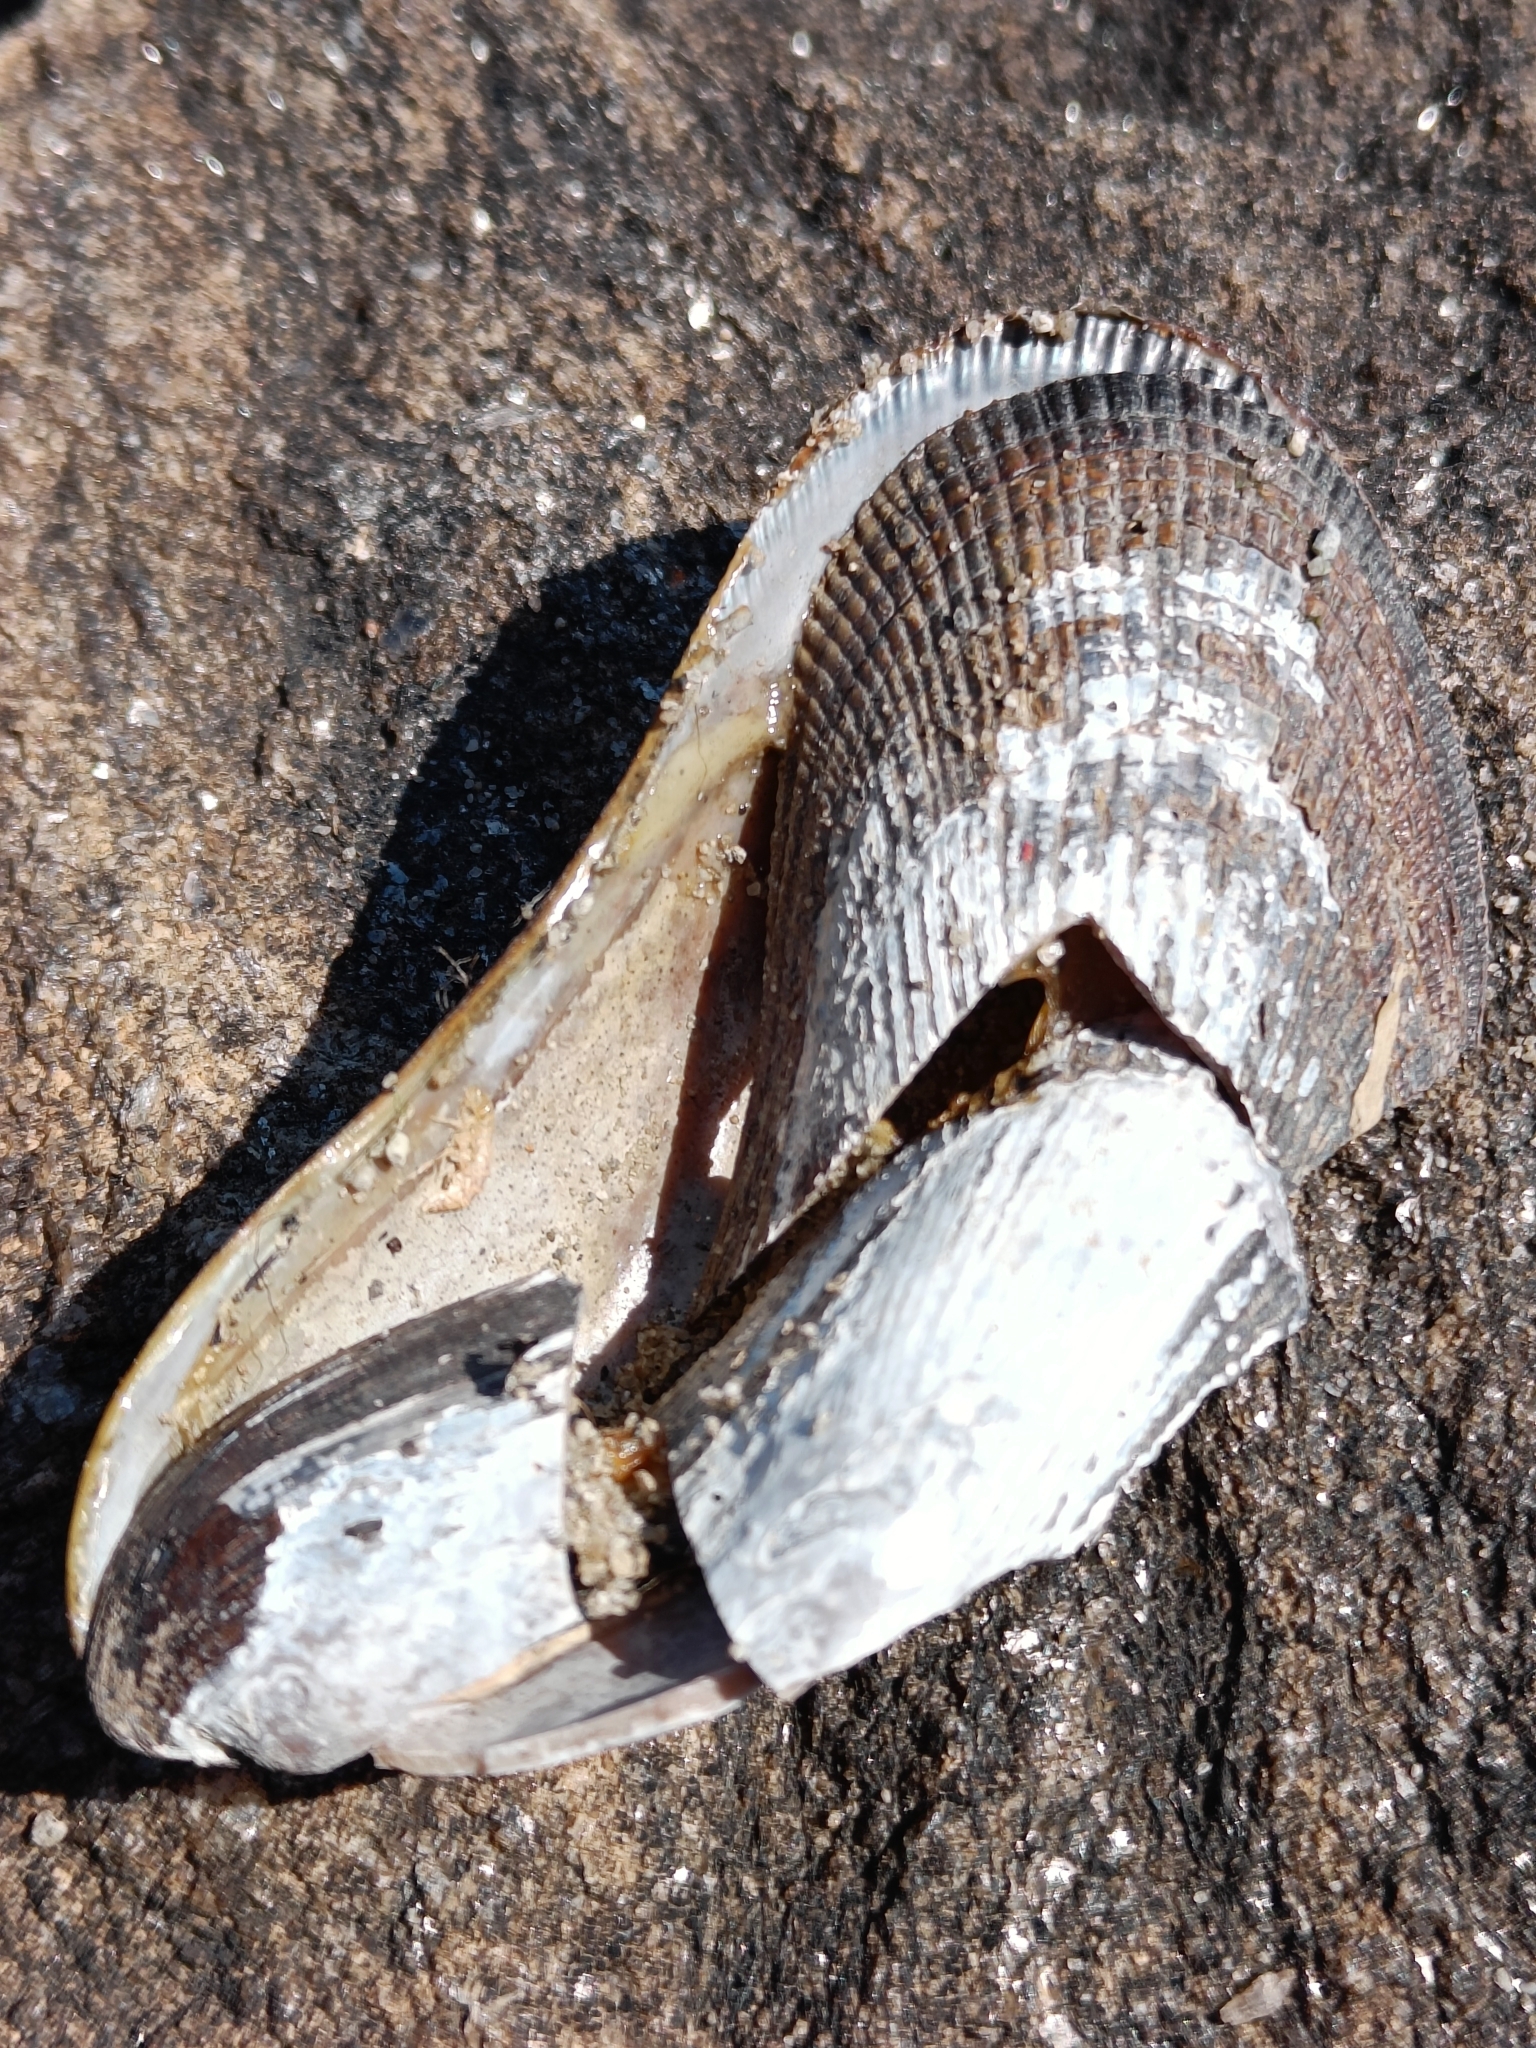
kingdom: Animalia
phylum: Mollusca
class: Bivalvia
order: Mytilida
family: Mytilidae
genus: Geukensia
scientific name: Geukensia demissa
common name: Ribbed mussel
